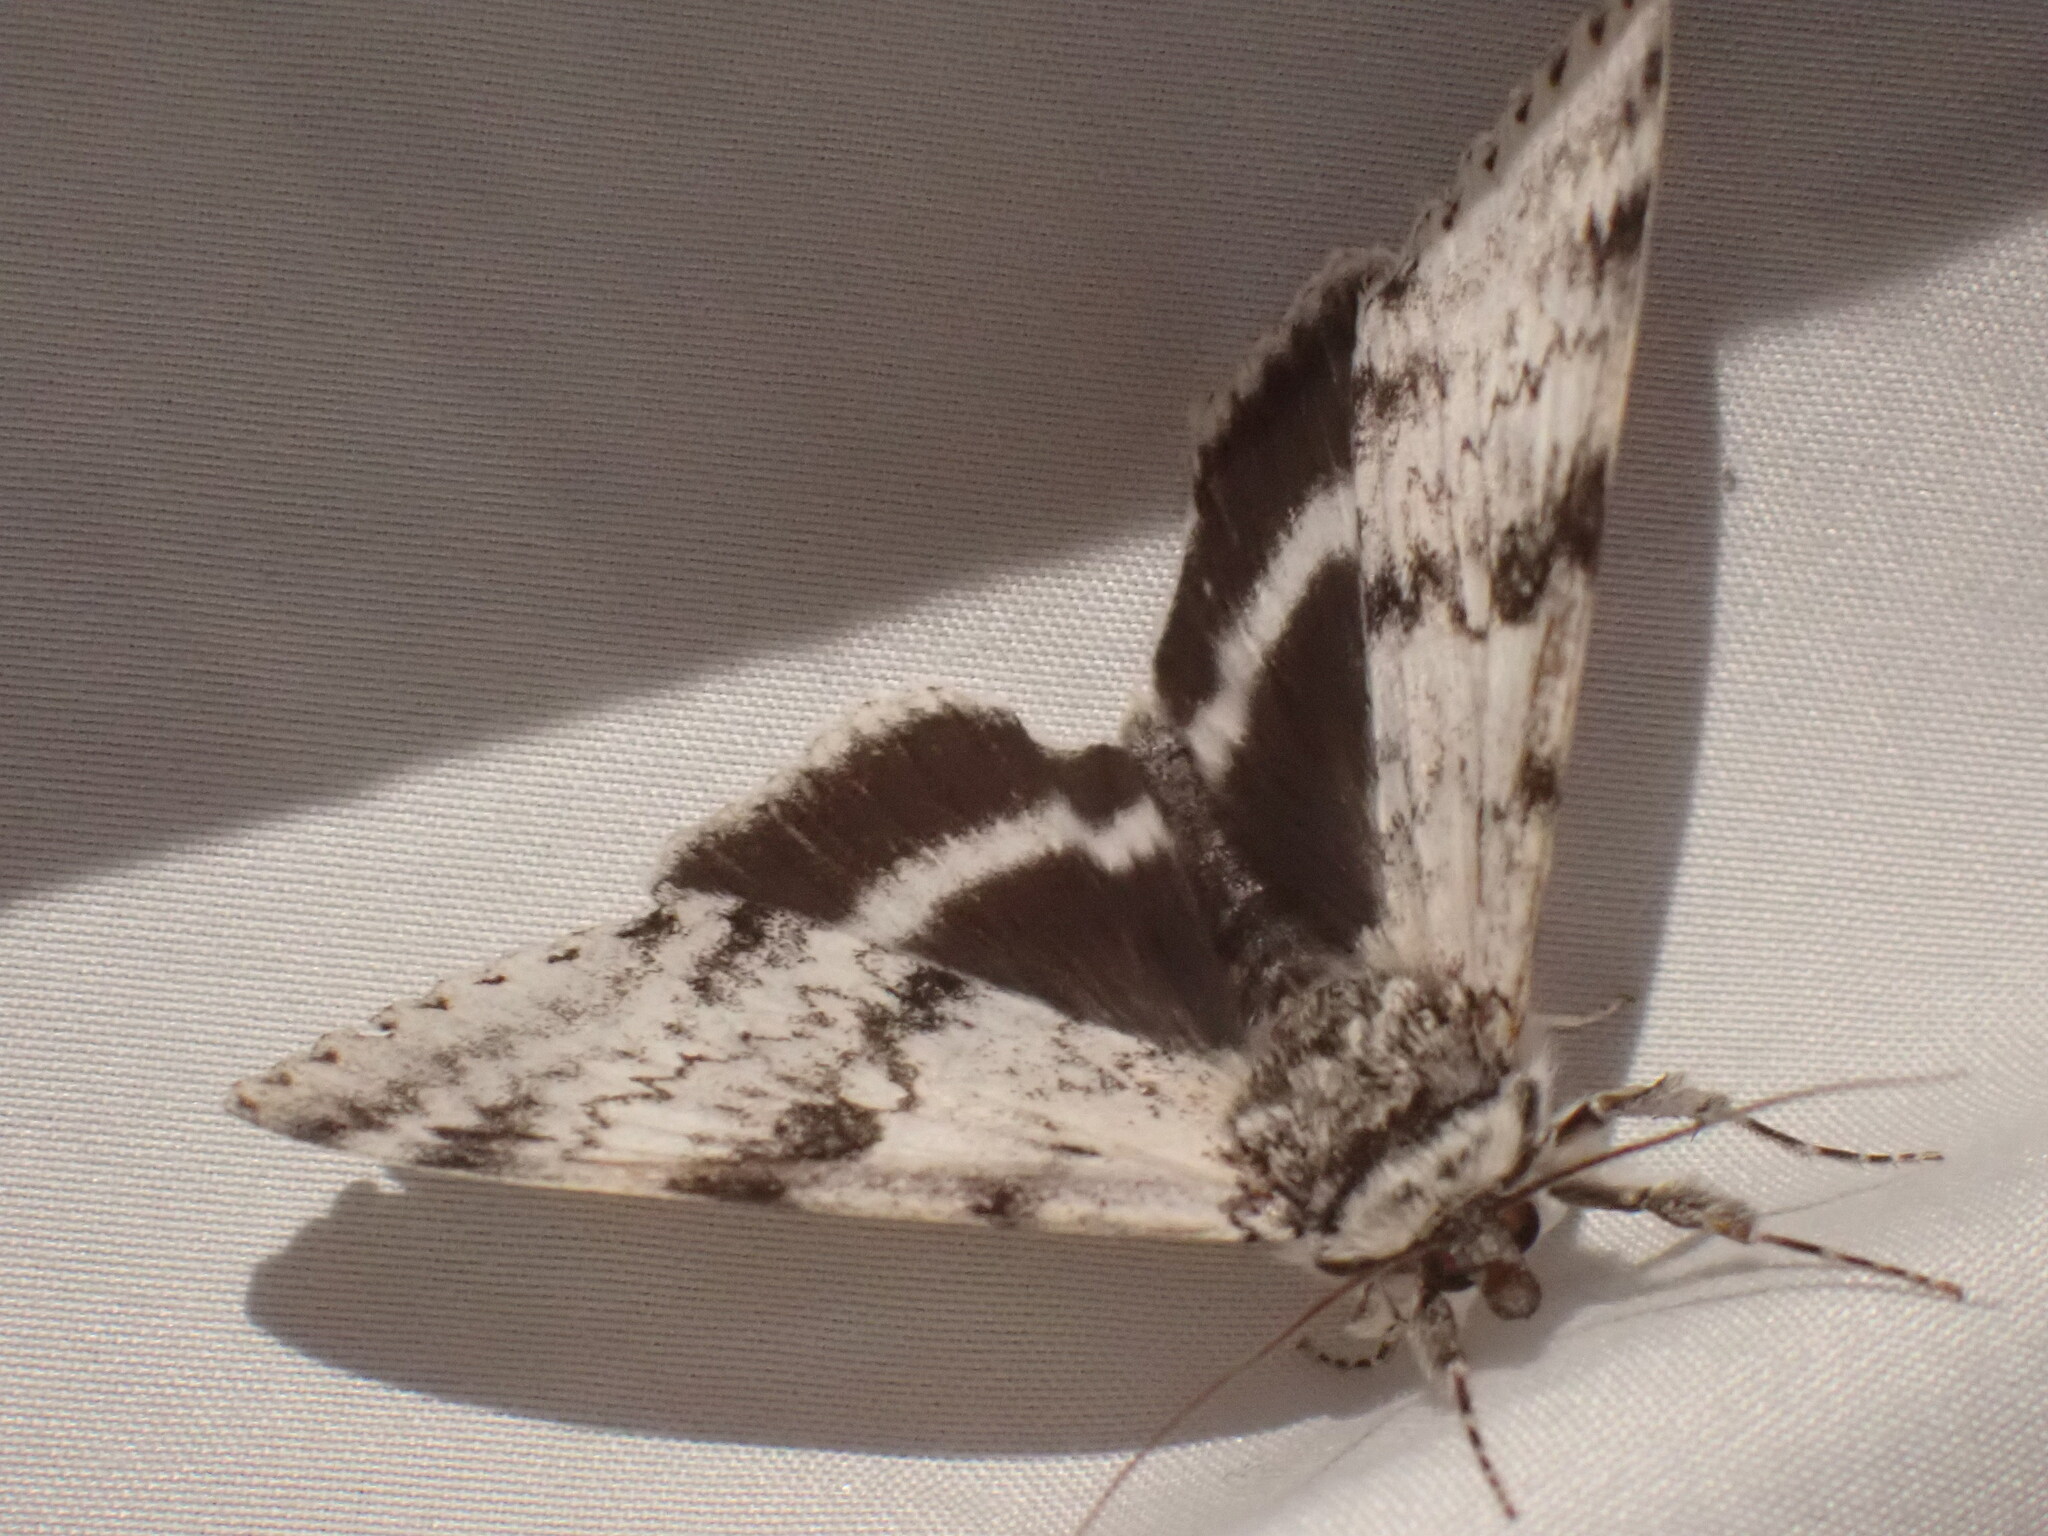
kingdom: Animalia
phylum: Arthropoda
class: Insecta
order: Lepidoptera
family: Erebidae
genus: Catocala
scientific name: Catocala relicta
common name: White underwing
